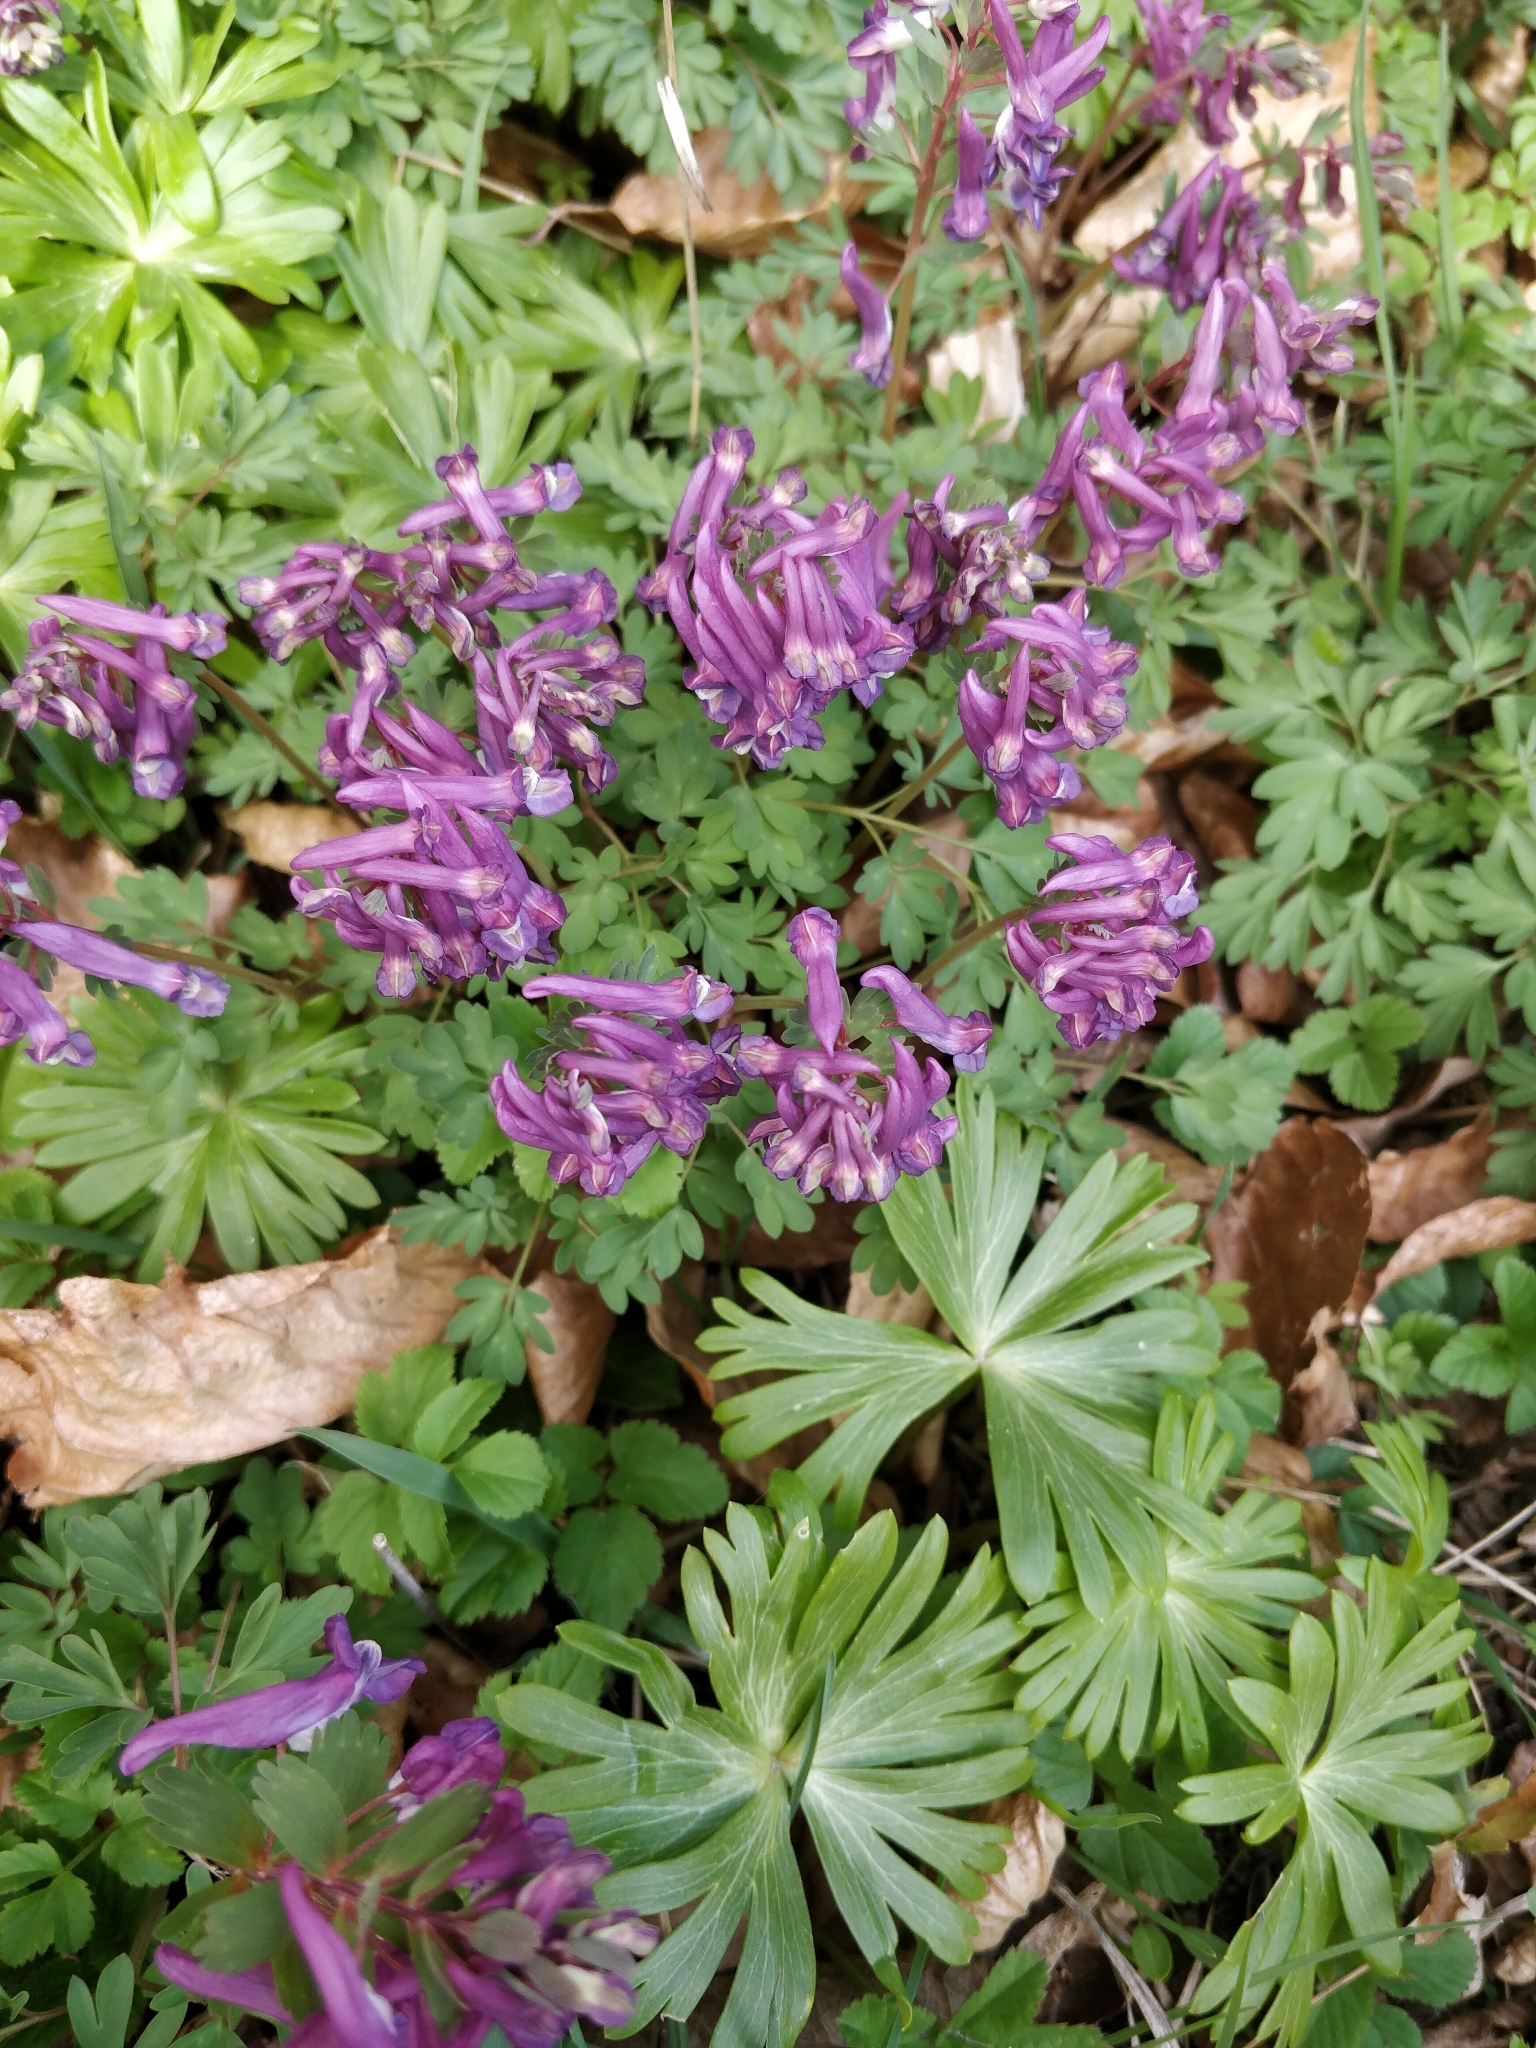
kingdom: Plantae
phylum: Tracheophyta
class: Magnoliopsida
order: Ranunculales
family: Papaveraceae
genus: Corydalis
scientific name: Corydalis solida
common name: Bird-in-a-bush
